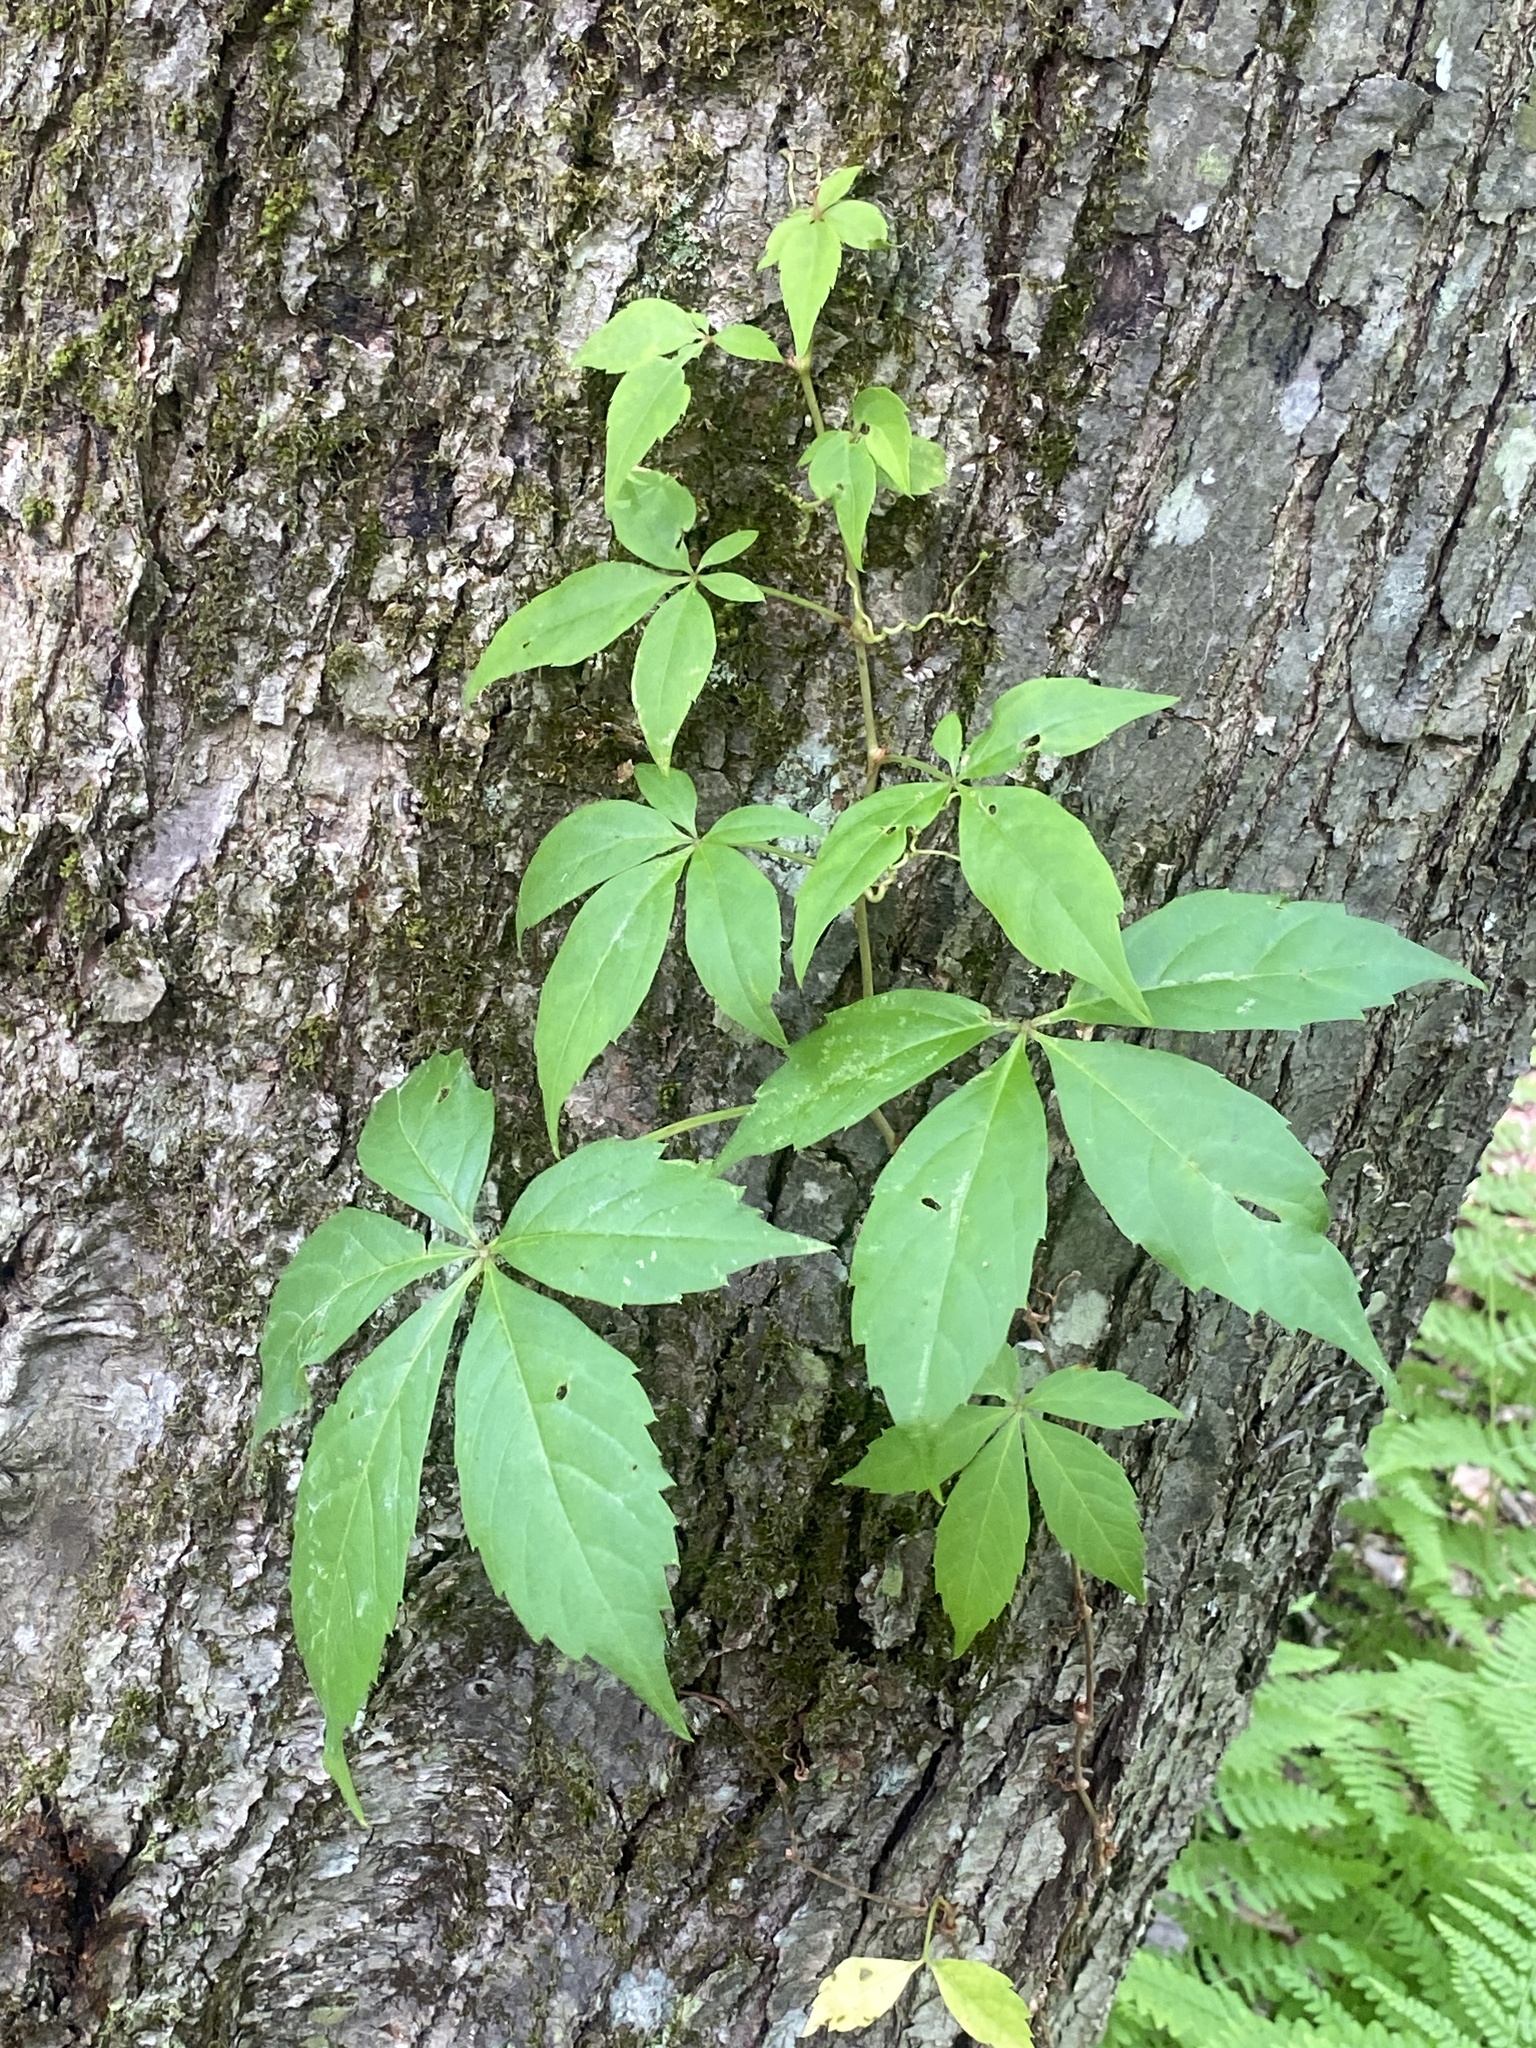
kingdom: Plantae
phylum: Tracheophyta
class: Magnoliopsida
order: Vitales
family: Vitaceae
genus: Parthenocissus
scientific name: Parthenocissus quinquefolia
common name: Virginia-creeper
